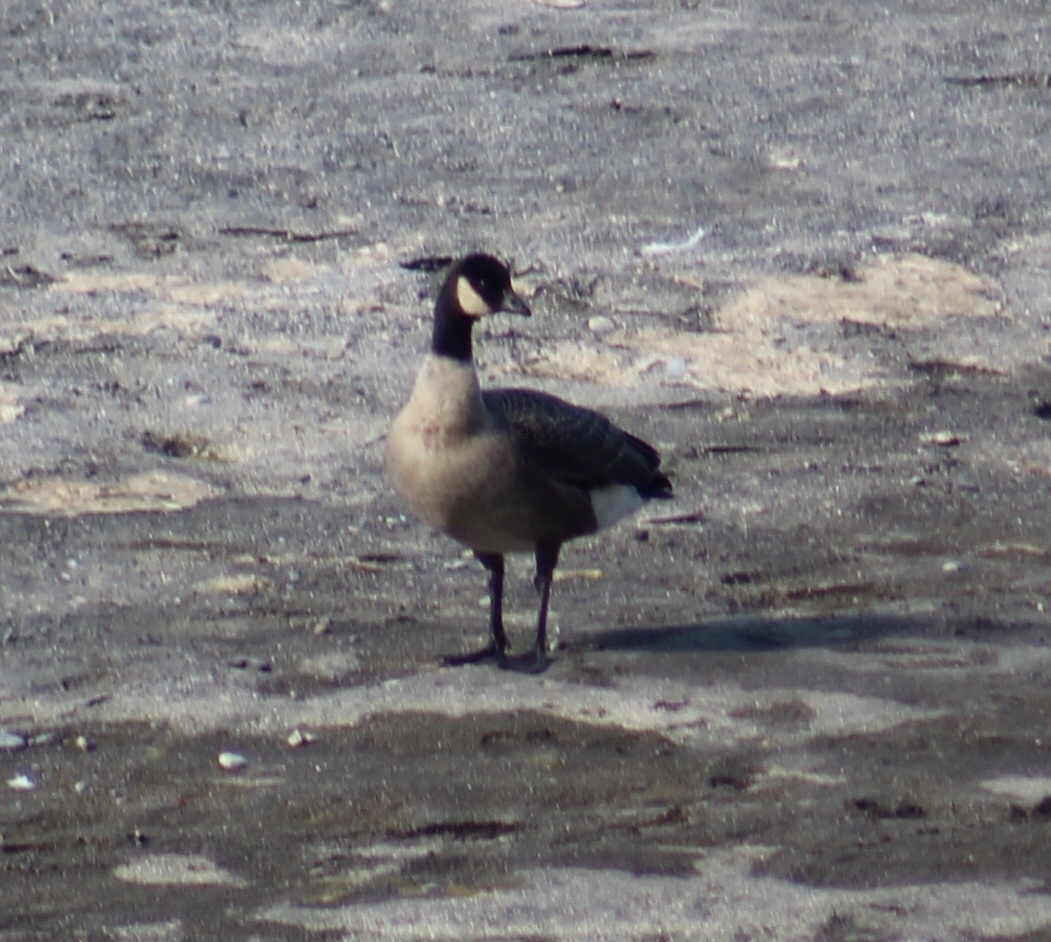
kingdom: Animalia
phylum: Chordata
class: Aves
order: Anseriformes
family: Anatidae
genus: Branta
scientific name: Branta hutchinsii
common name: Cackling goose
